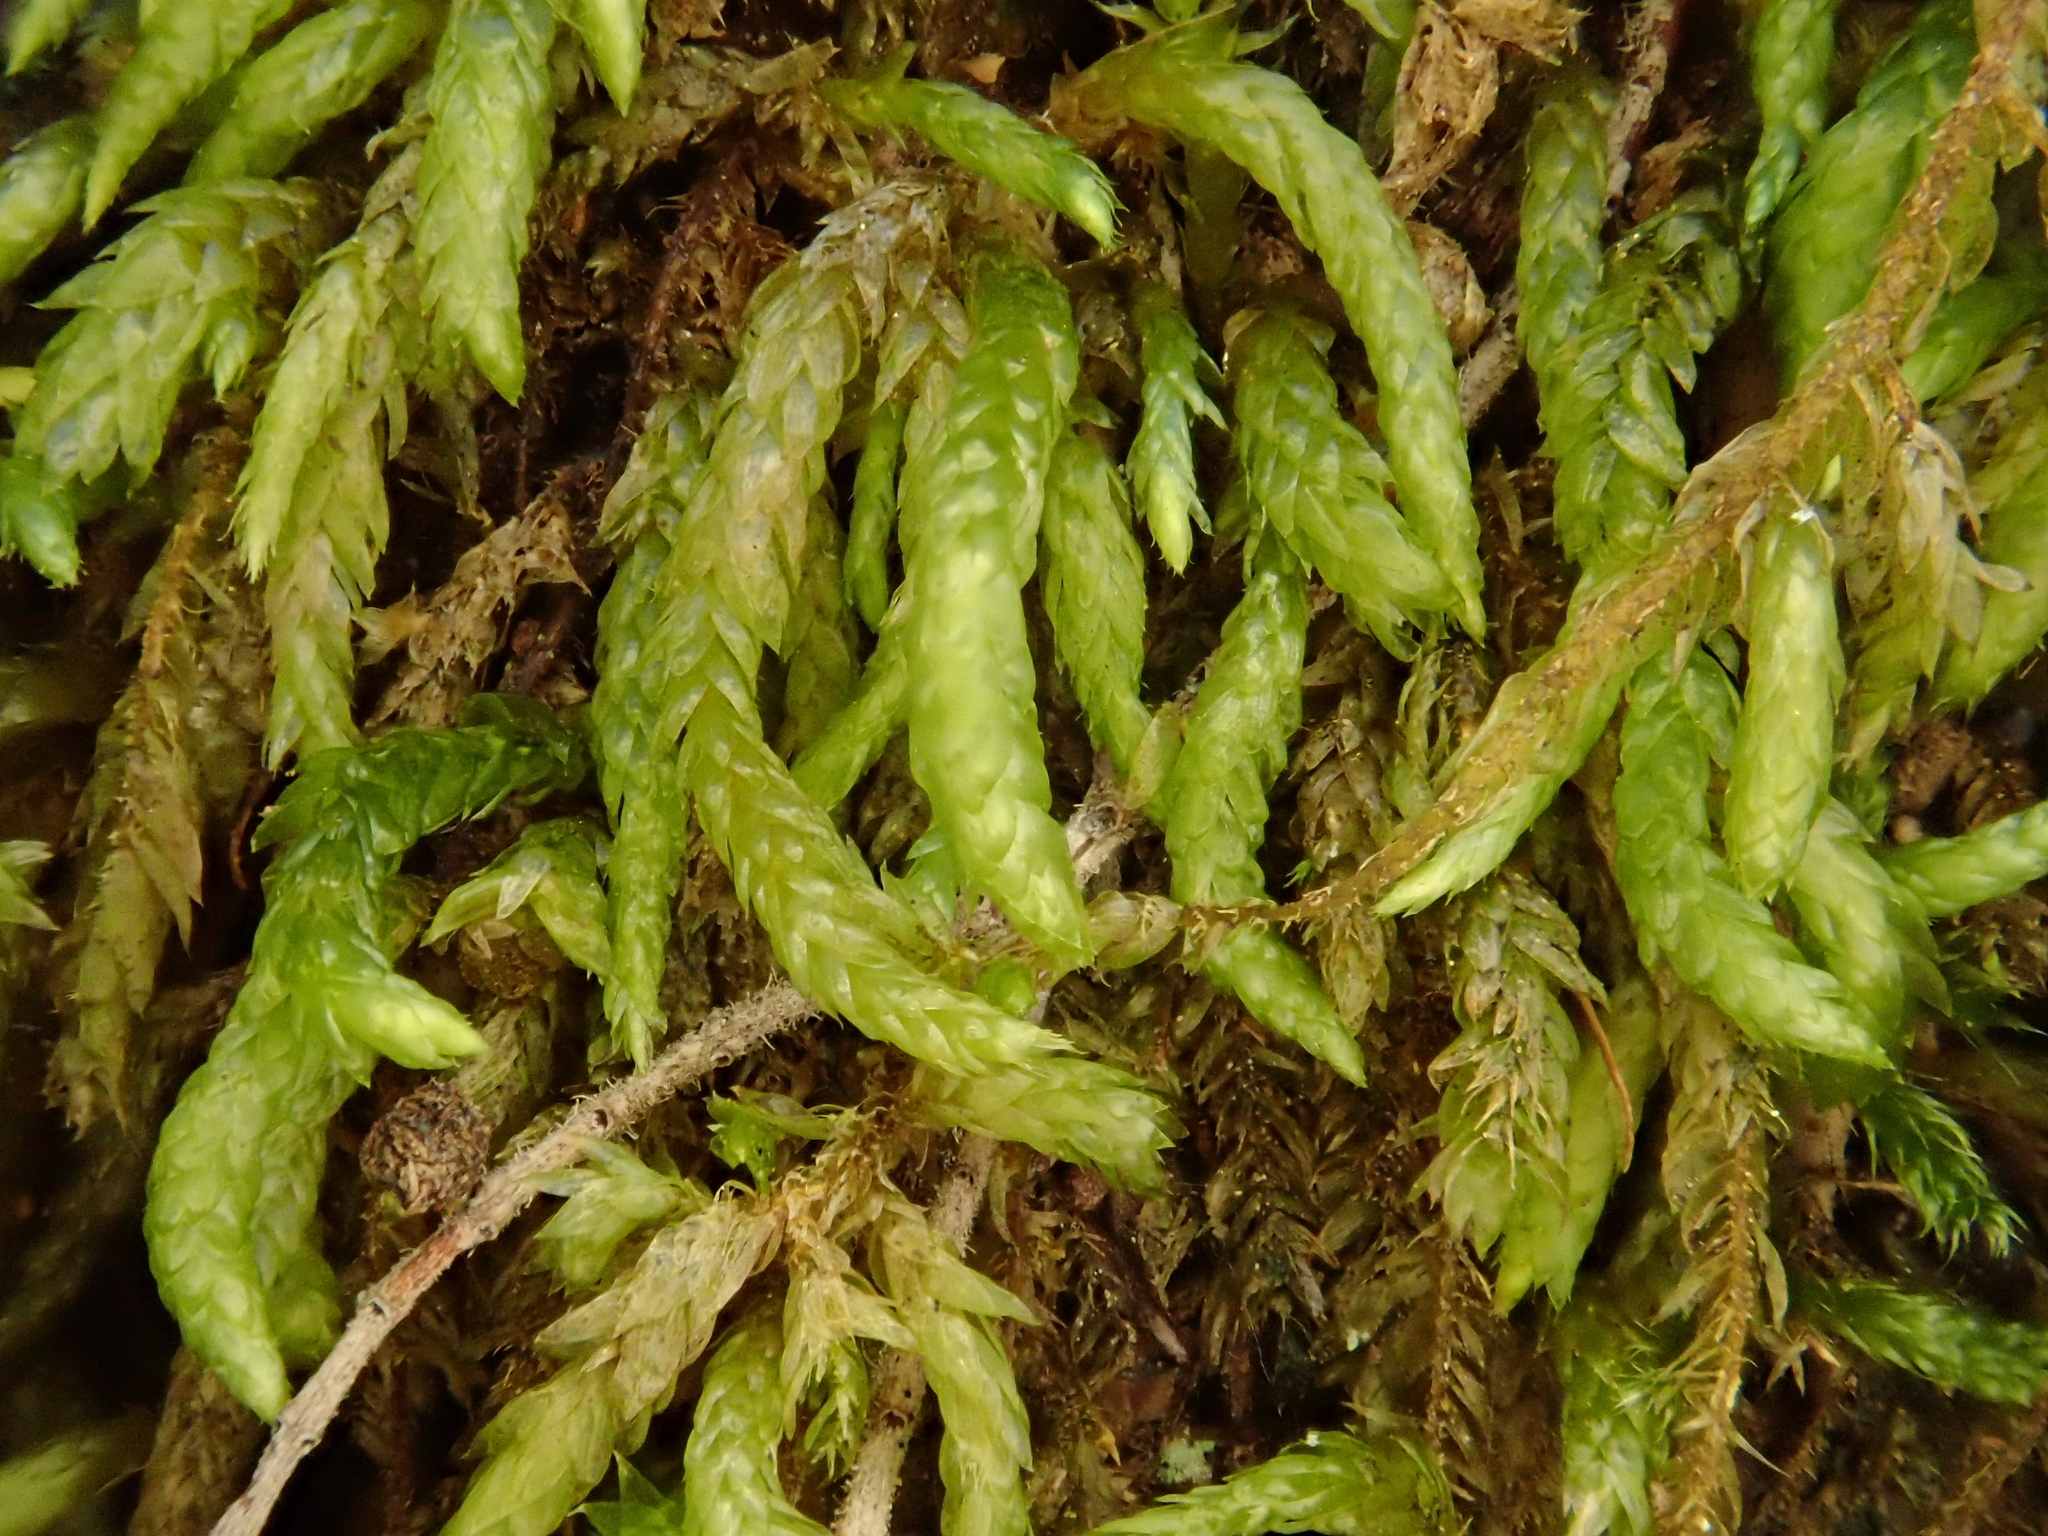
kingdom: Plantae
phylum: Bryophyta
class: Bryopsida
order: Hypnales
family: Brachytheciaceae
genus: Scleropodium
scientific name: Scleropodium touretii
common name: Glass-wort feather-moss
